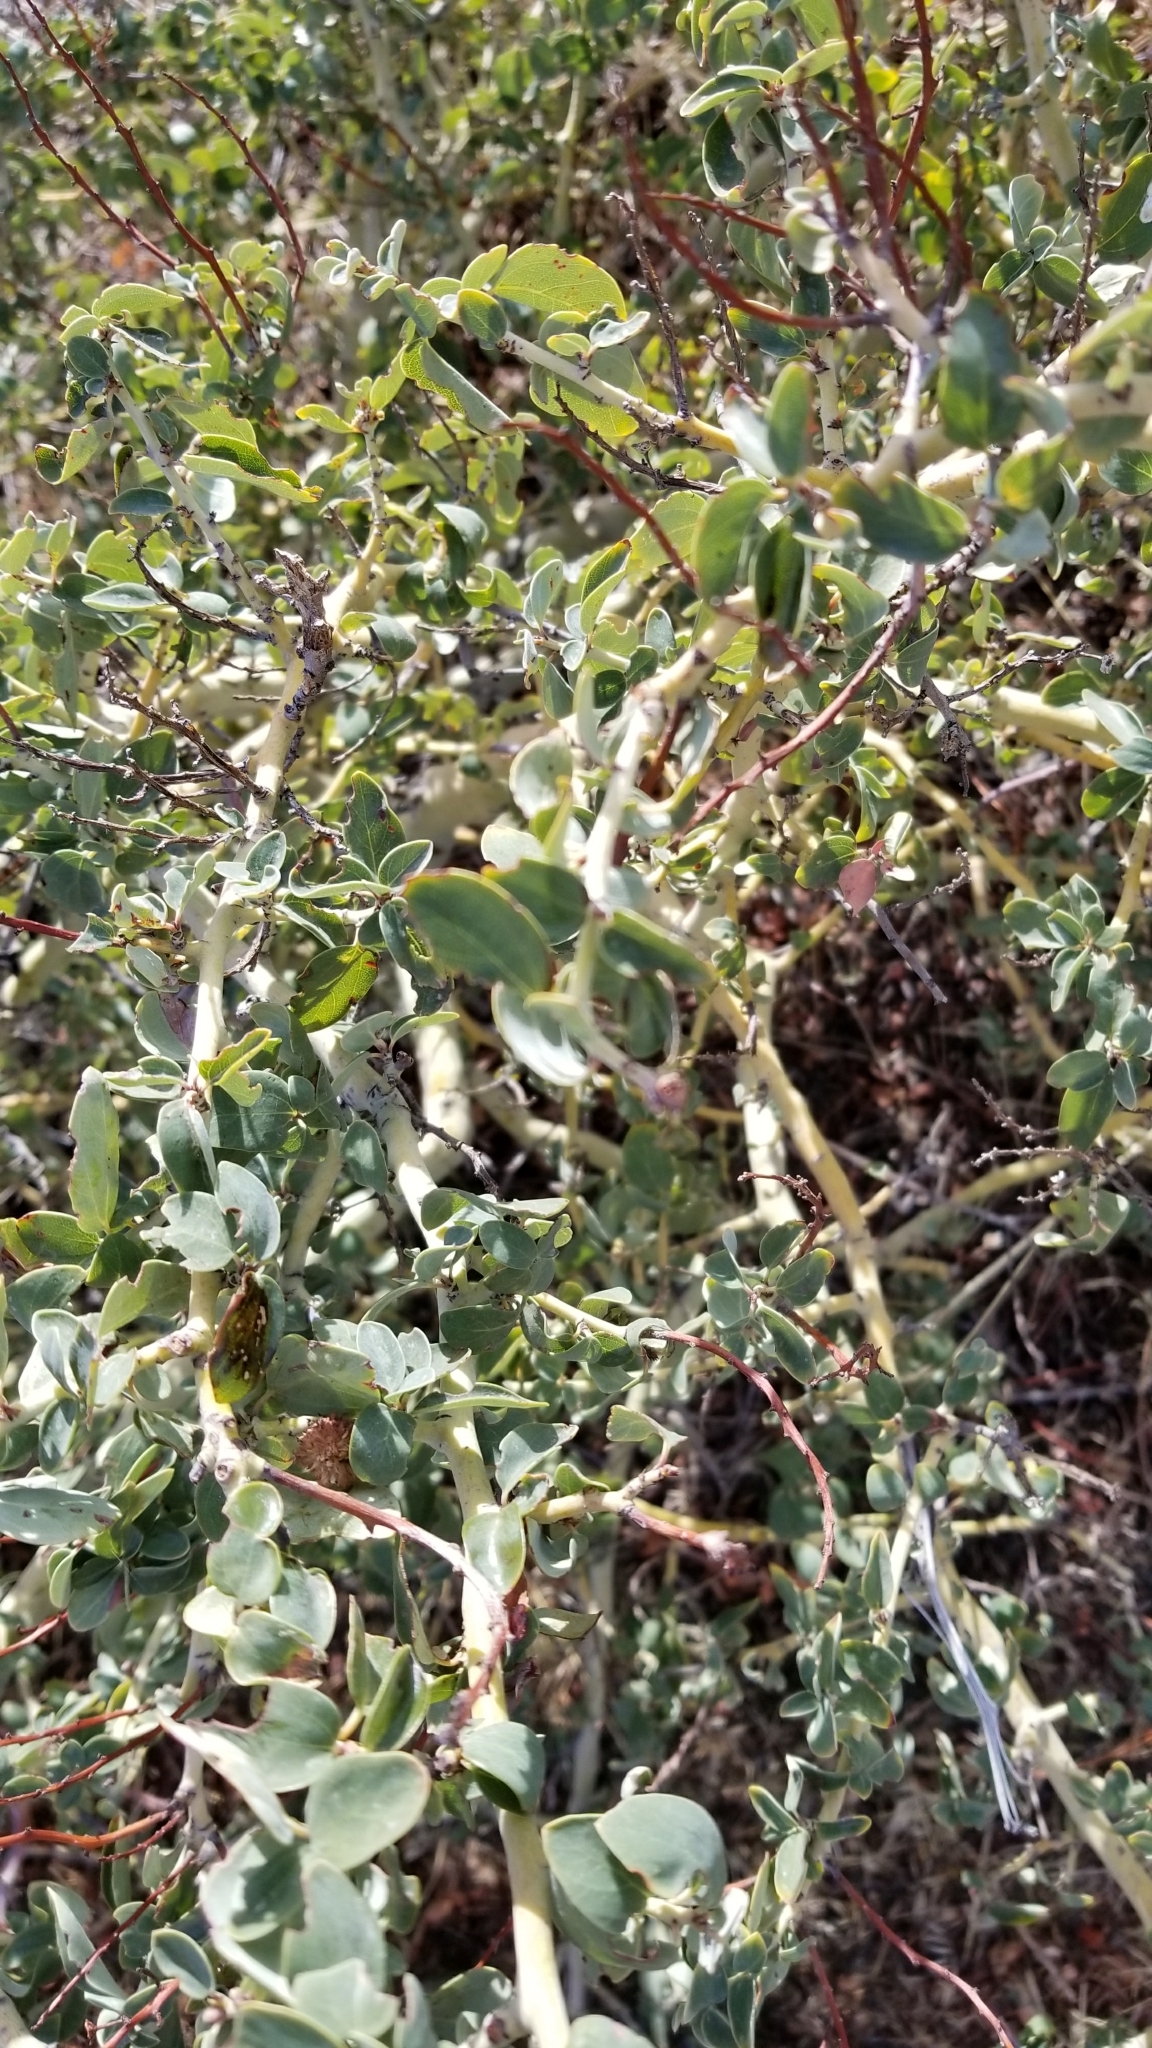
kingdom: Plantae
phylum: Tracheophyta
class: Magnoliopsida
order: Rosales
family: Rhamnaceae
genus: Ceanothus
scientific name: Ceanothus leucodermis
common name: Chaparral whitethorn
